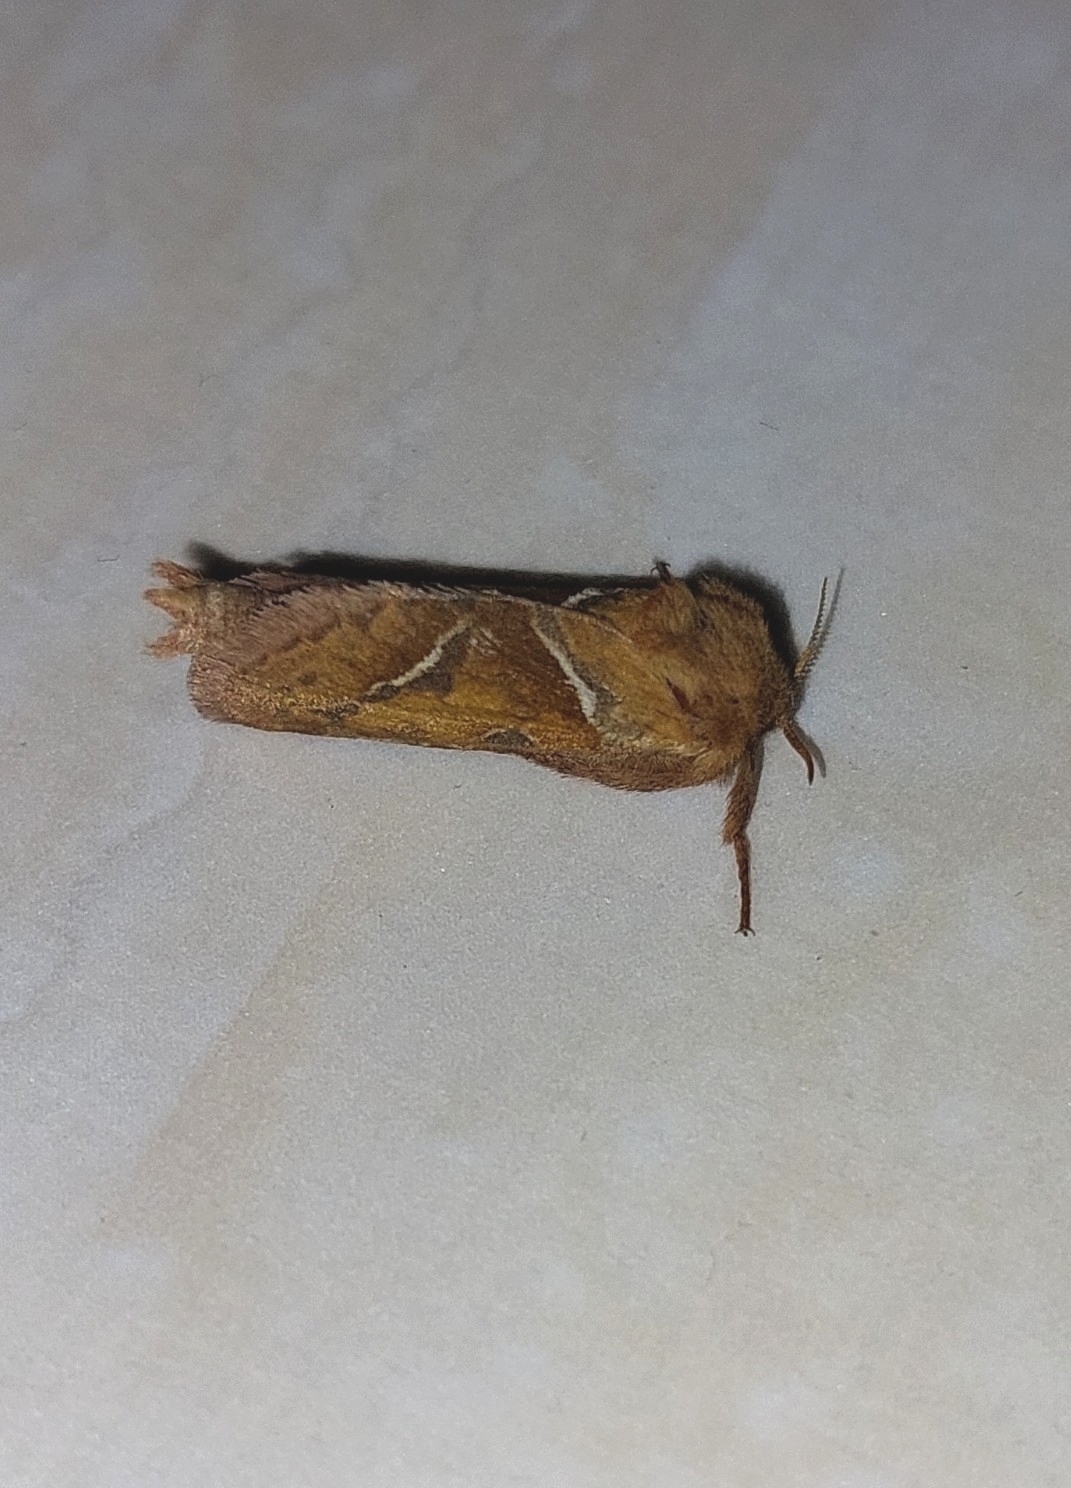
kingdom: Animalia
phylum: Arthropoda
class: Insecta
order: Lepidoptera
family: Hepialidae
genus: Triodia
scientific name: Triodia sylvina
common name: Orange swift
